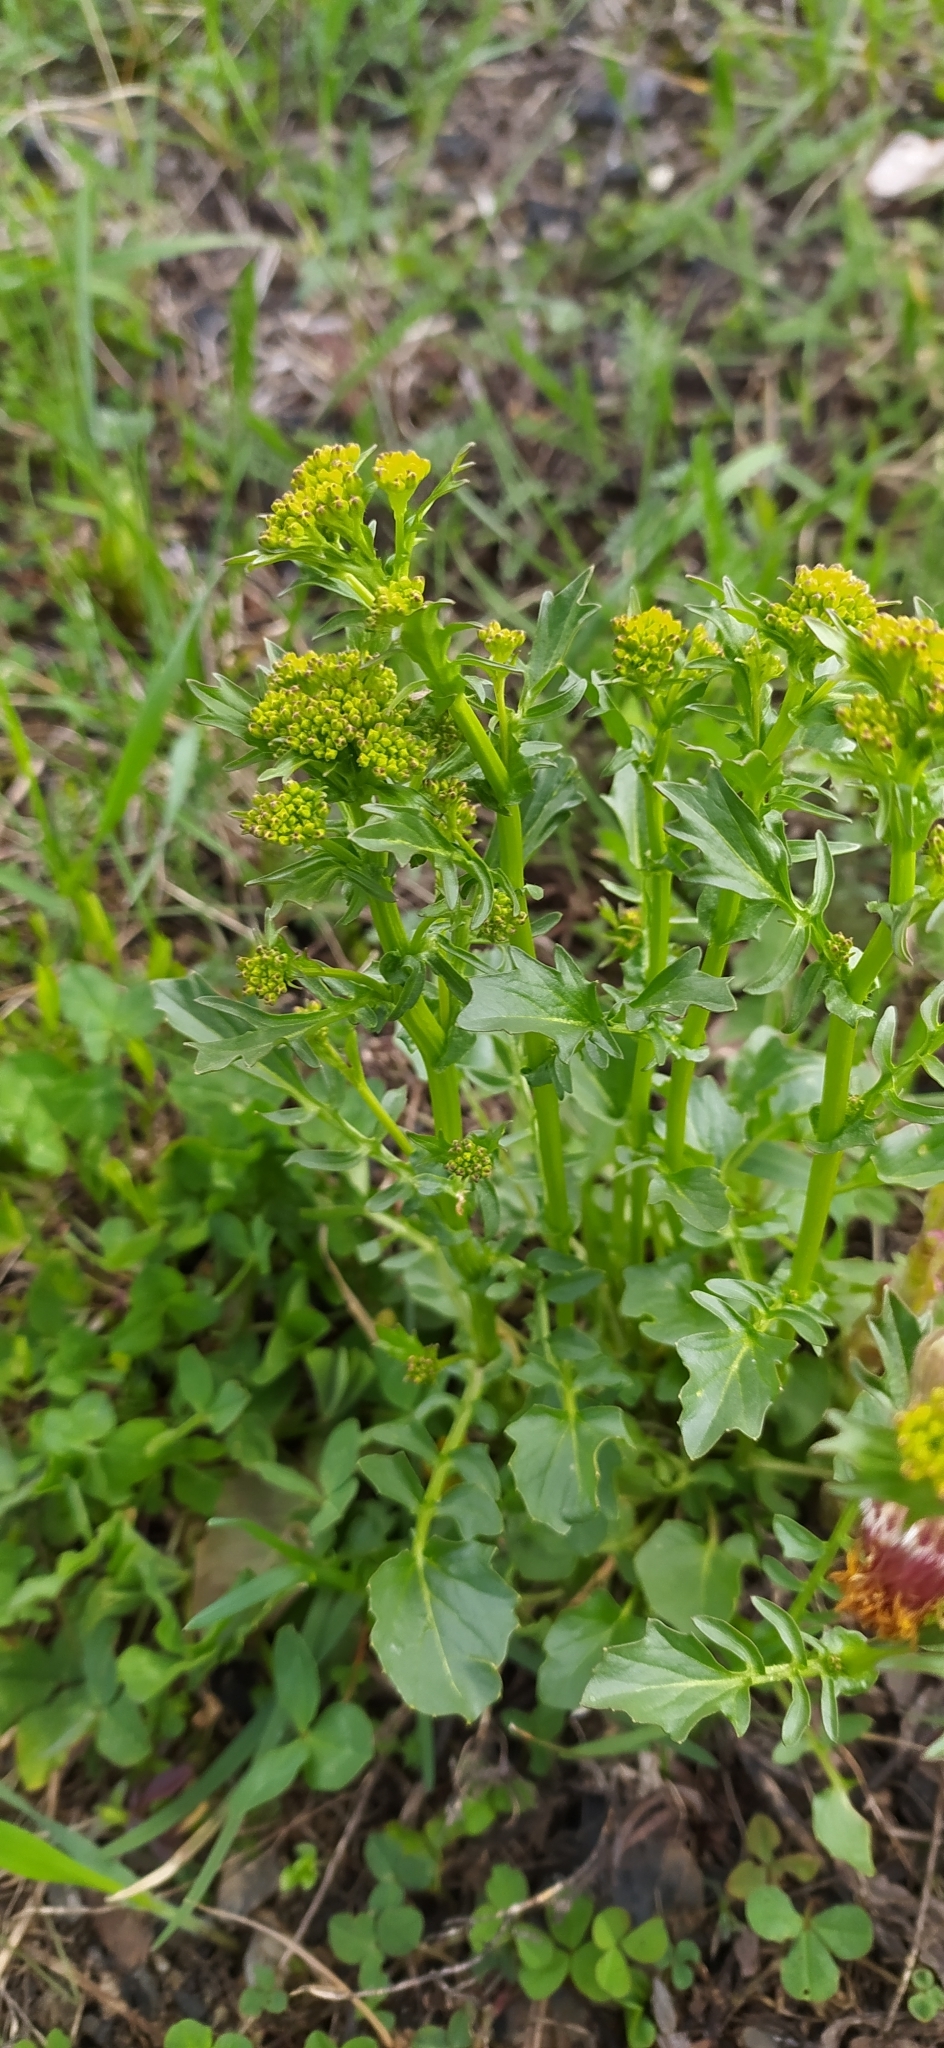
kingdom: Plantae
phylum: Tracheophyta
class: Magnoliopsida
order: Brassicales
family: Brassicaceae
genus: Barbarea
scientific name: Barbarea vulgaris
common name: Cressy-greens
